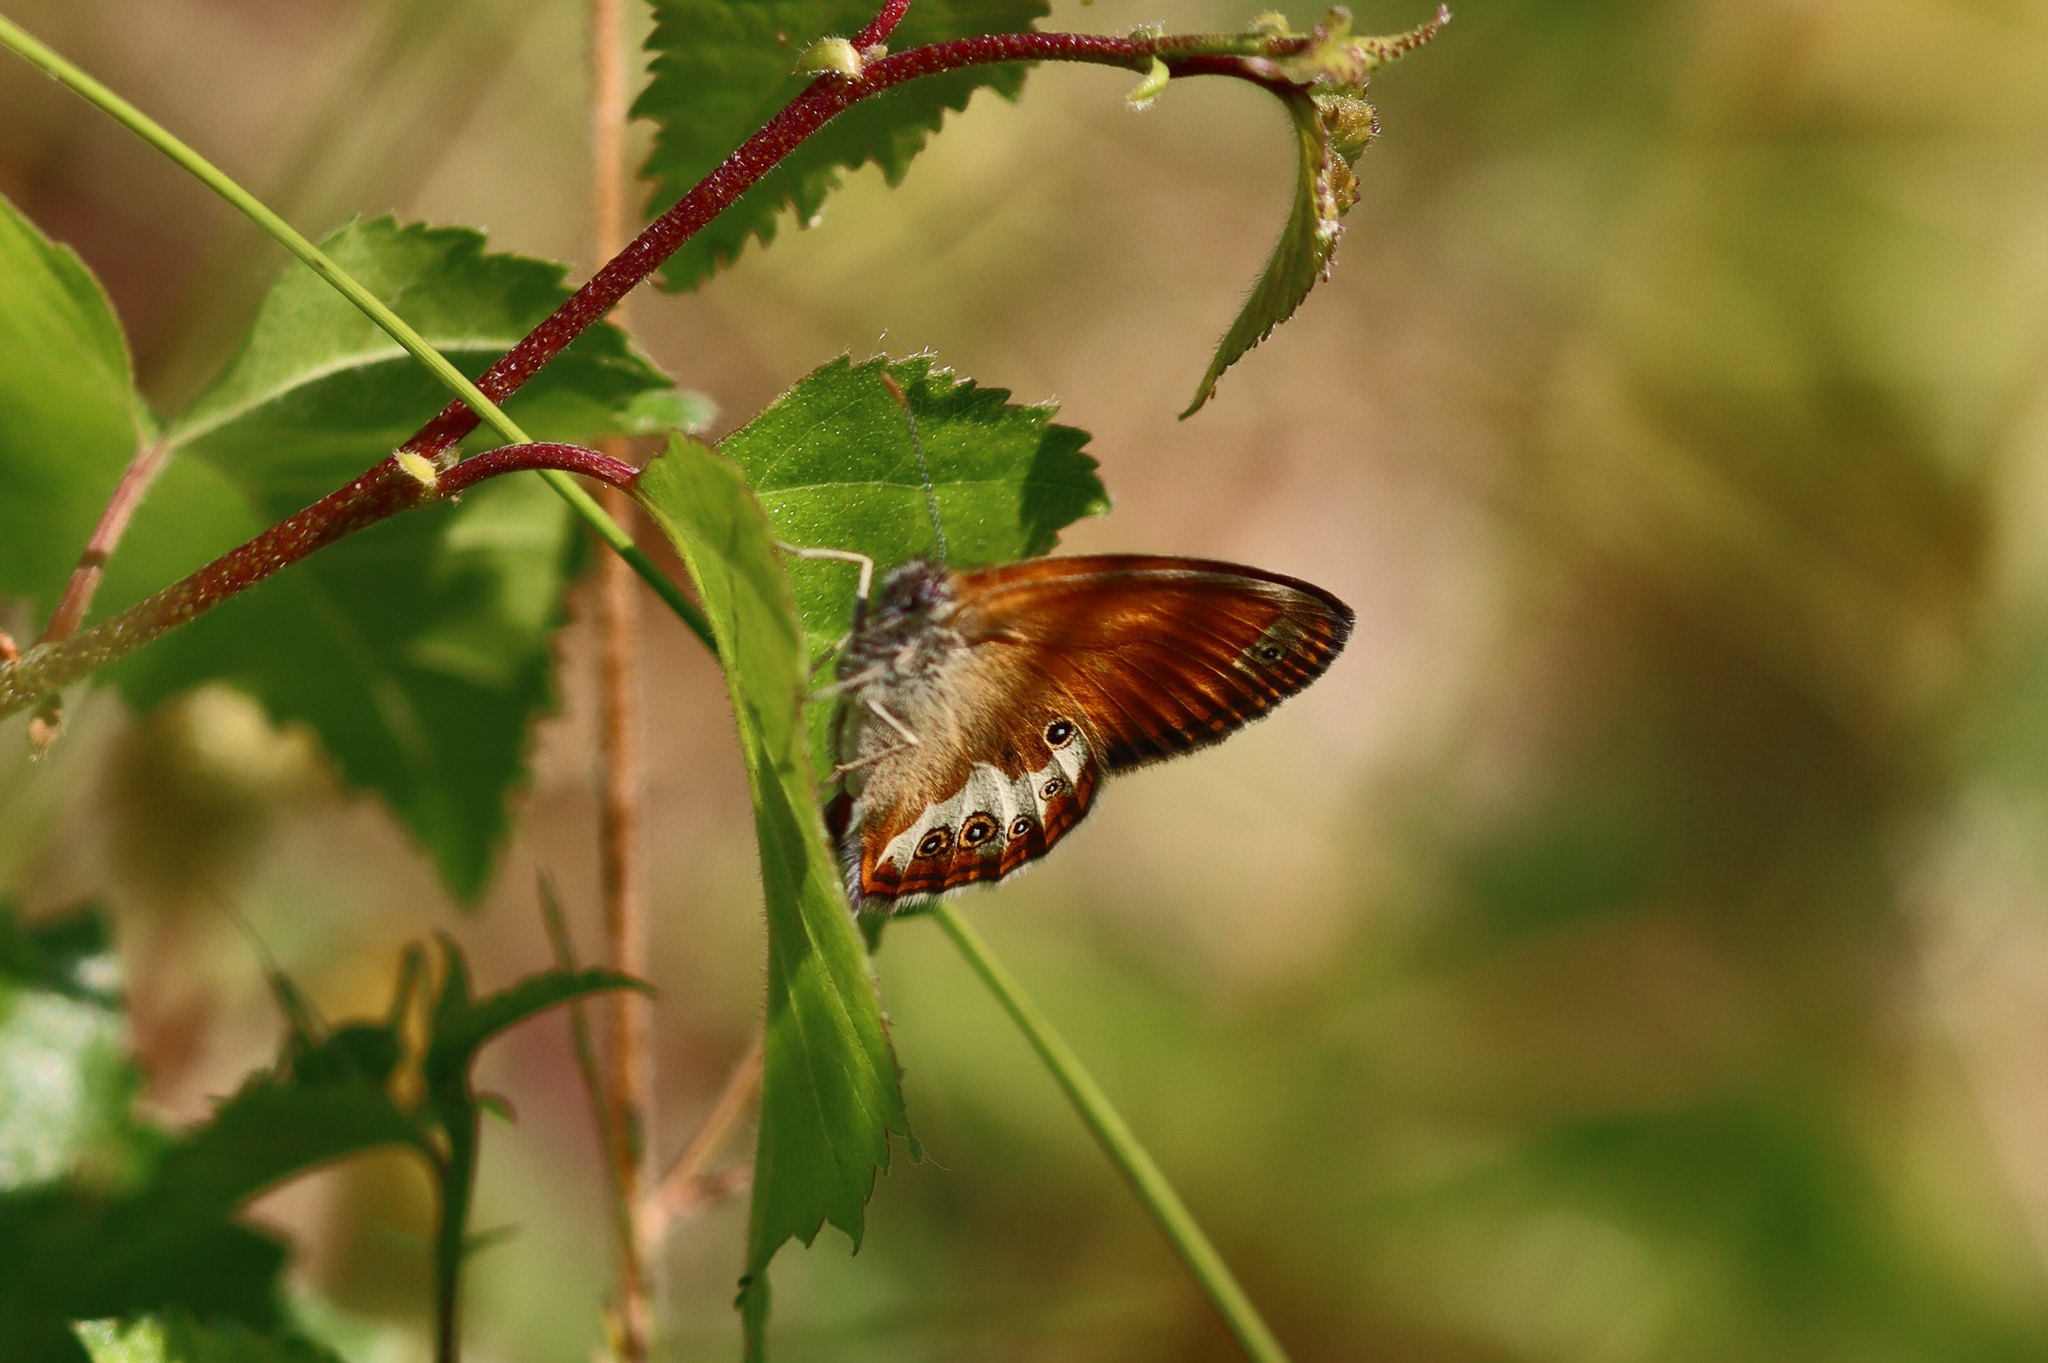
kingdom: Animalia
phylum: Arthropoda
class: Insecta
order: Lepidoptera
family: Nymphalidae
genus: Coenonympha
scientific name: Coenonympha arcania
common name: Pearly heath
